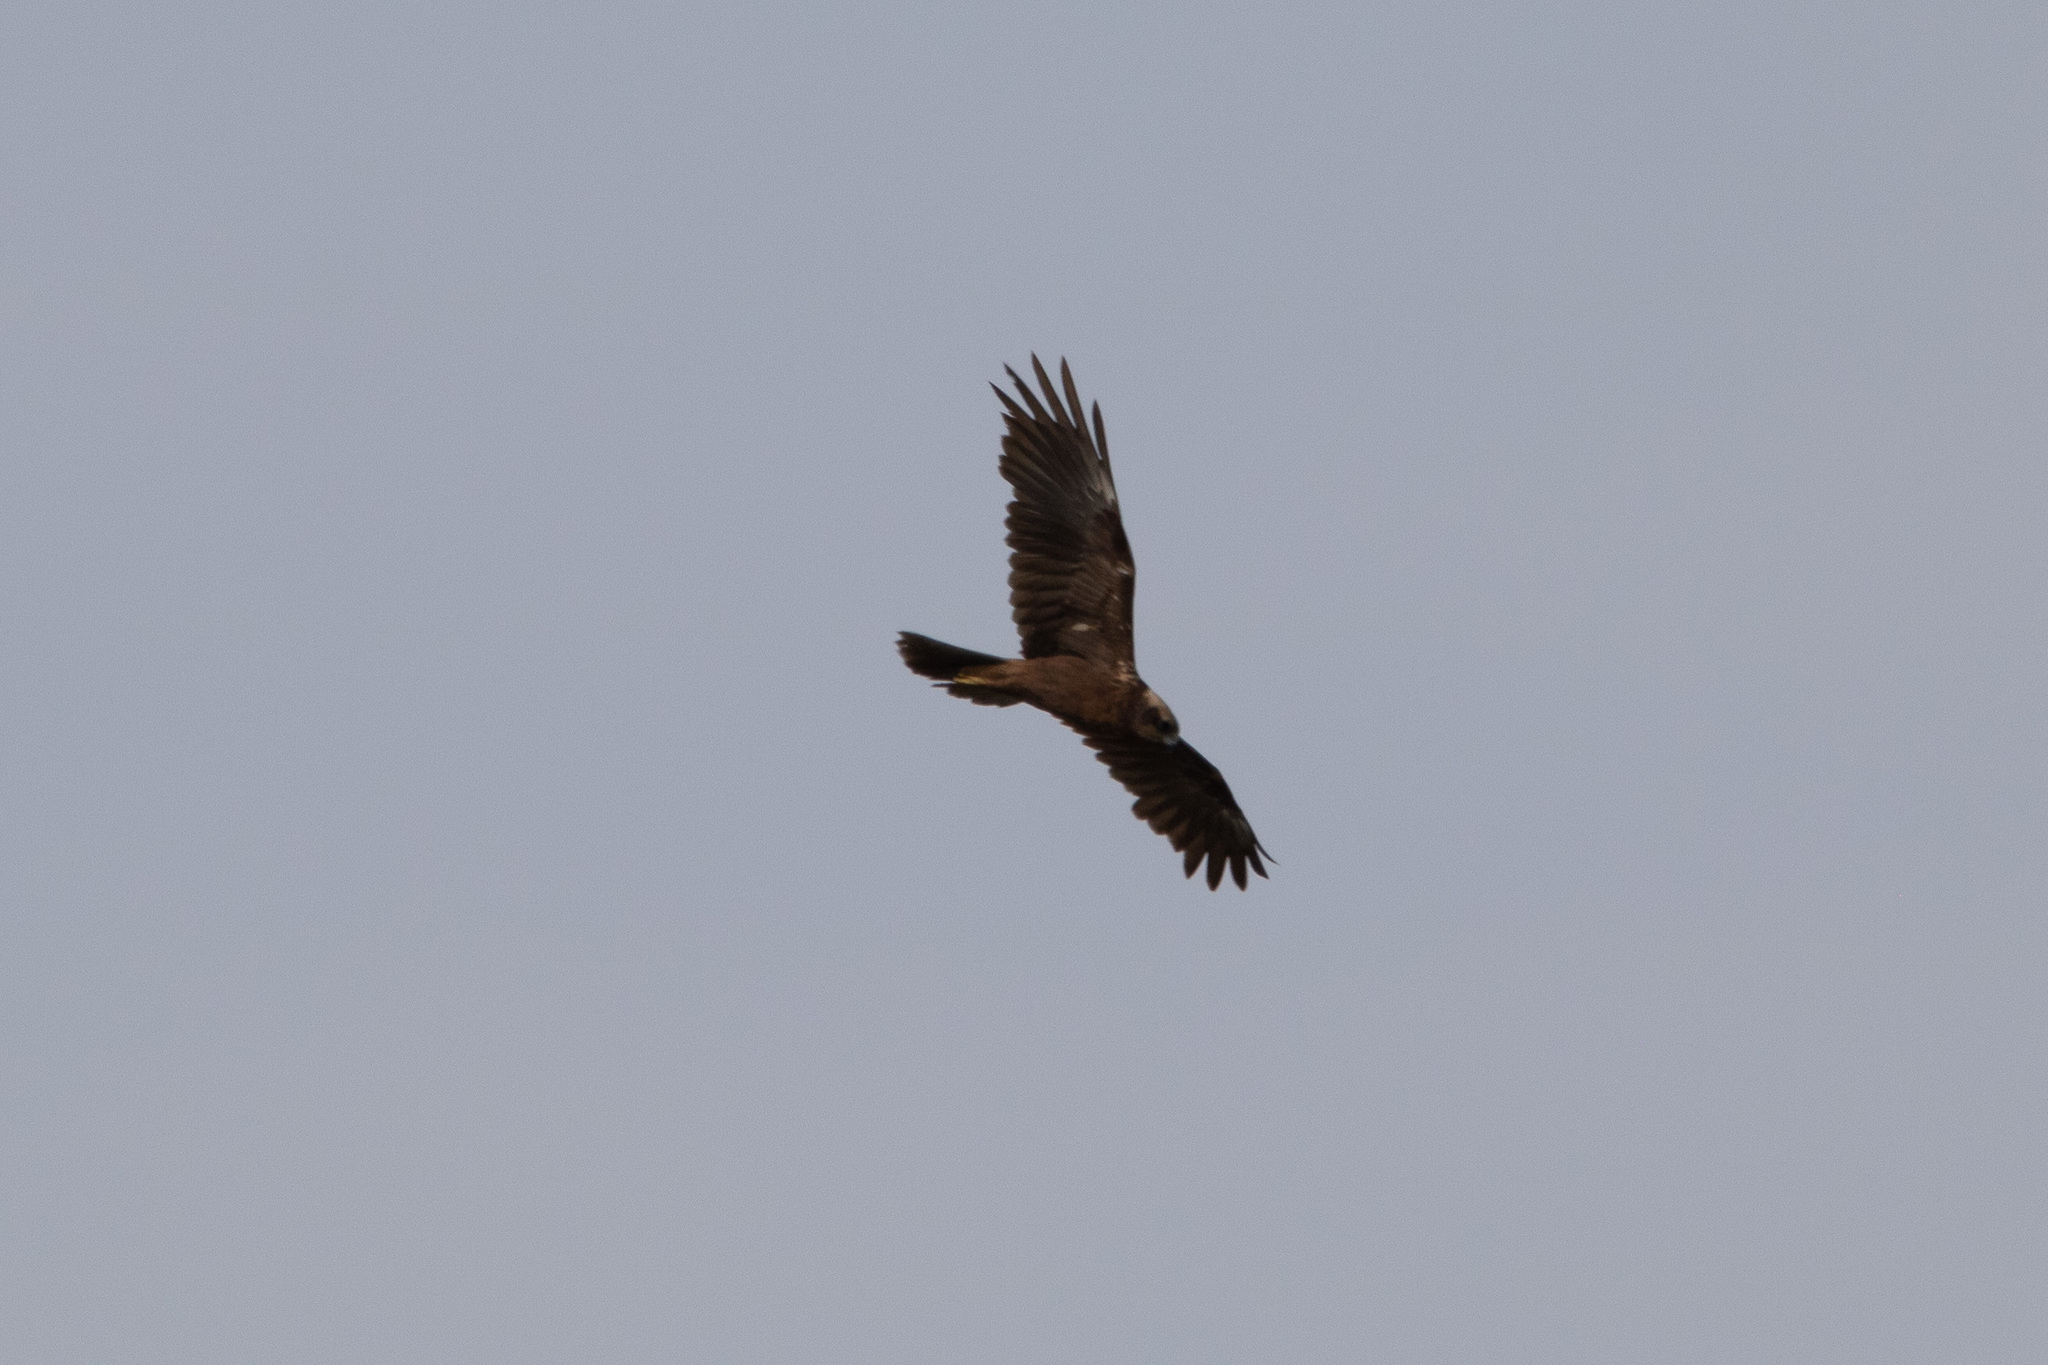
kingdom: Animalia
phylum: Chordata
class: Aves
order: Accipitriformes
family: Accipitridae
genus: Circus
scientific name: Circus aeruginosus
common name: Western marsh harrier
